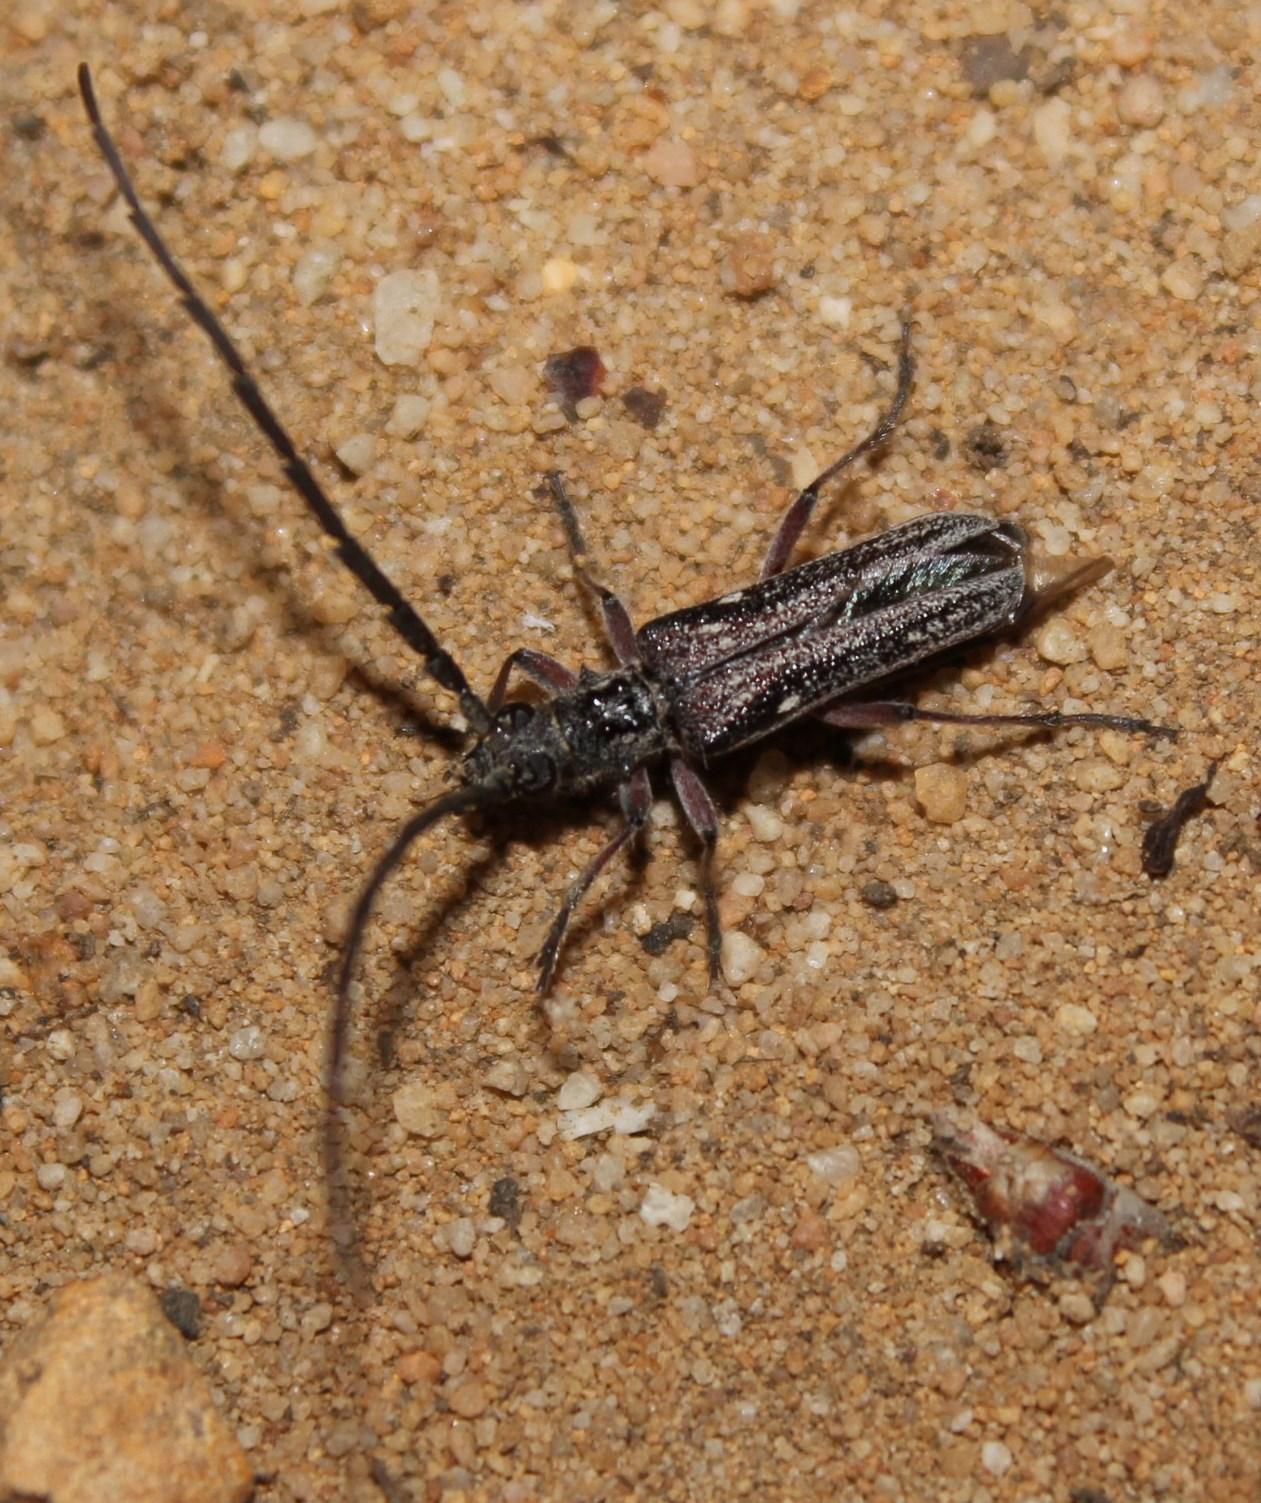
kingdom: Animalia
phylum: Arthropoda
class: Insecta
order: Coleoptera
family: Cerambycidae
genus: Aristogitus
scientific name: Aristogitus cylindricus
